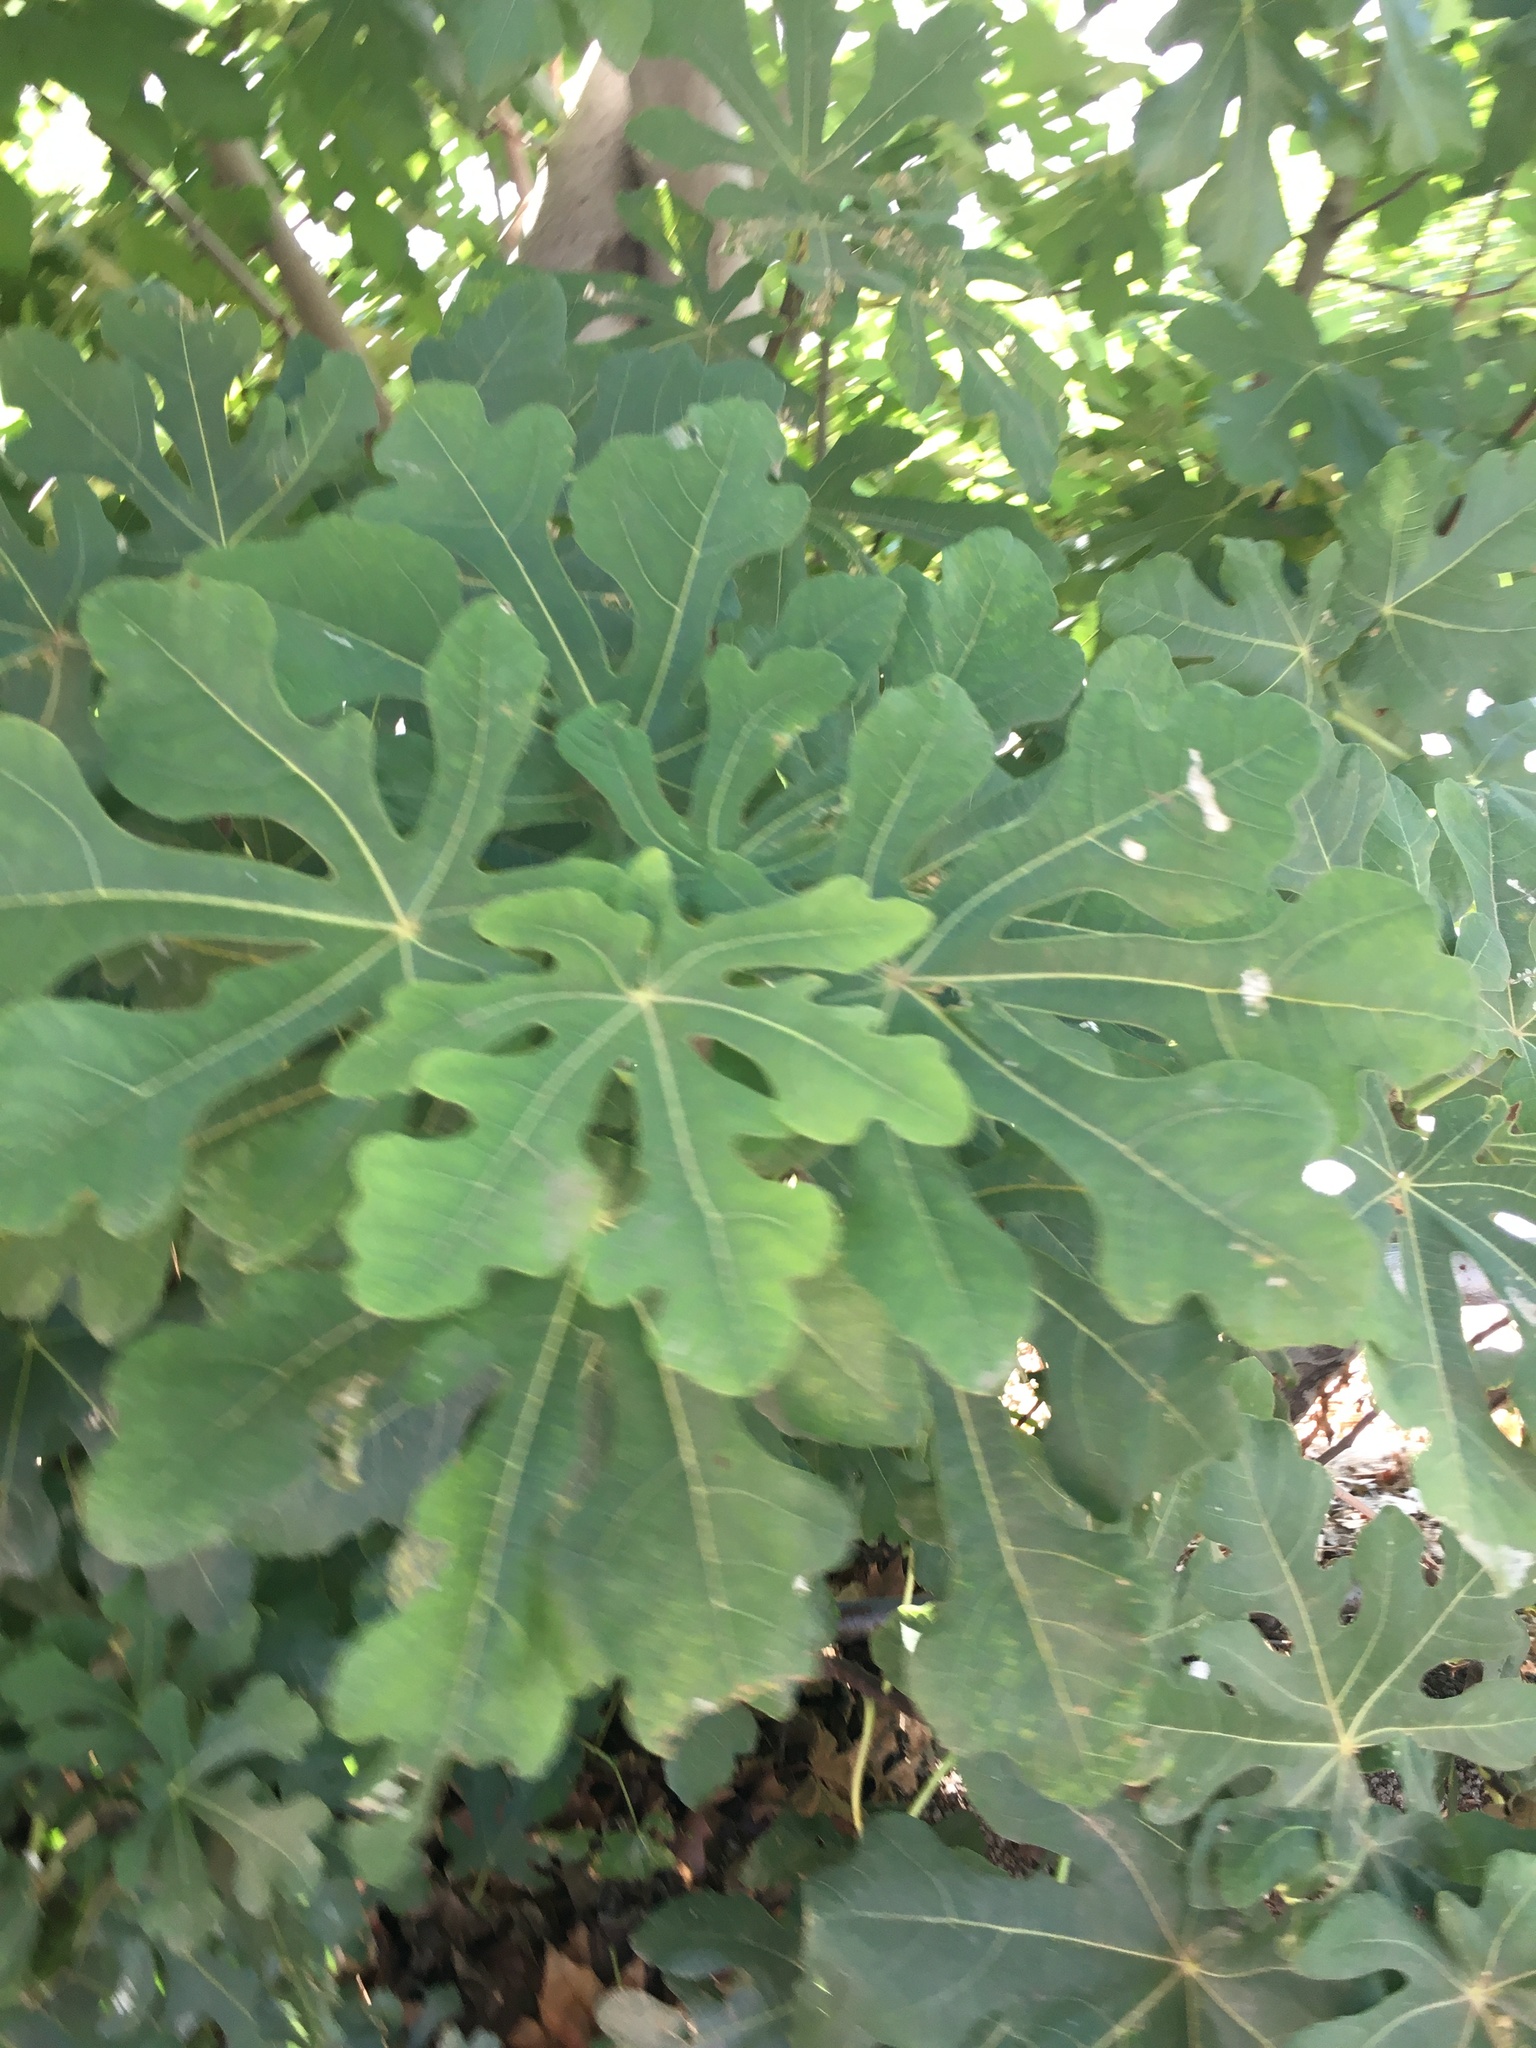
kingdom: Plantae
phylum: Tracheophyta
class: Magnoliopsida
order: Rosales
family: Moraceae
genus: Ficus
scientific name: Ficus carica
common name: Fig
